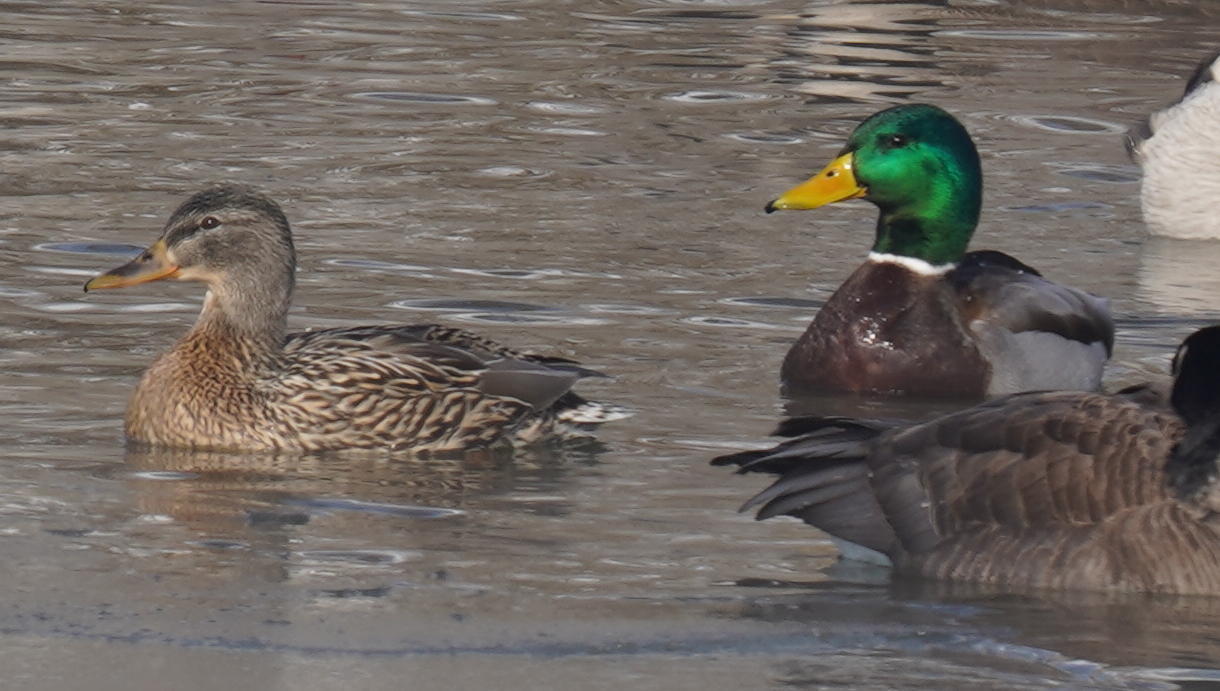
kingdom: Animalia
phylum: Chordata
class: Aves
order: Anseriformes
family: Anatidae
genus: Anas
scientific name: Anas platyrhynchos
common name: Mallard
